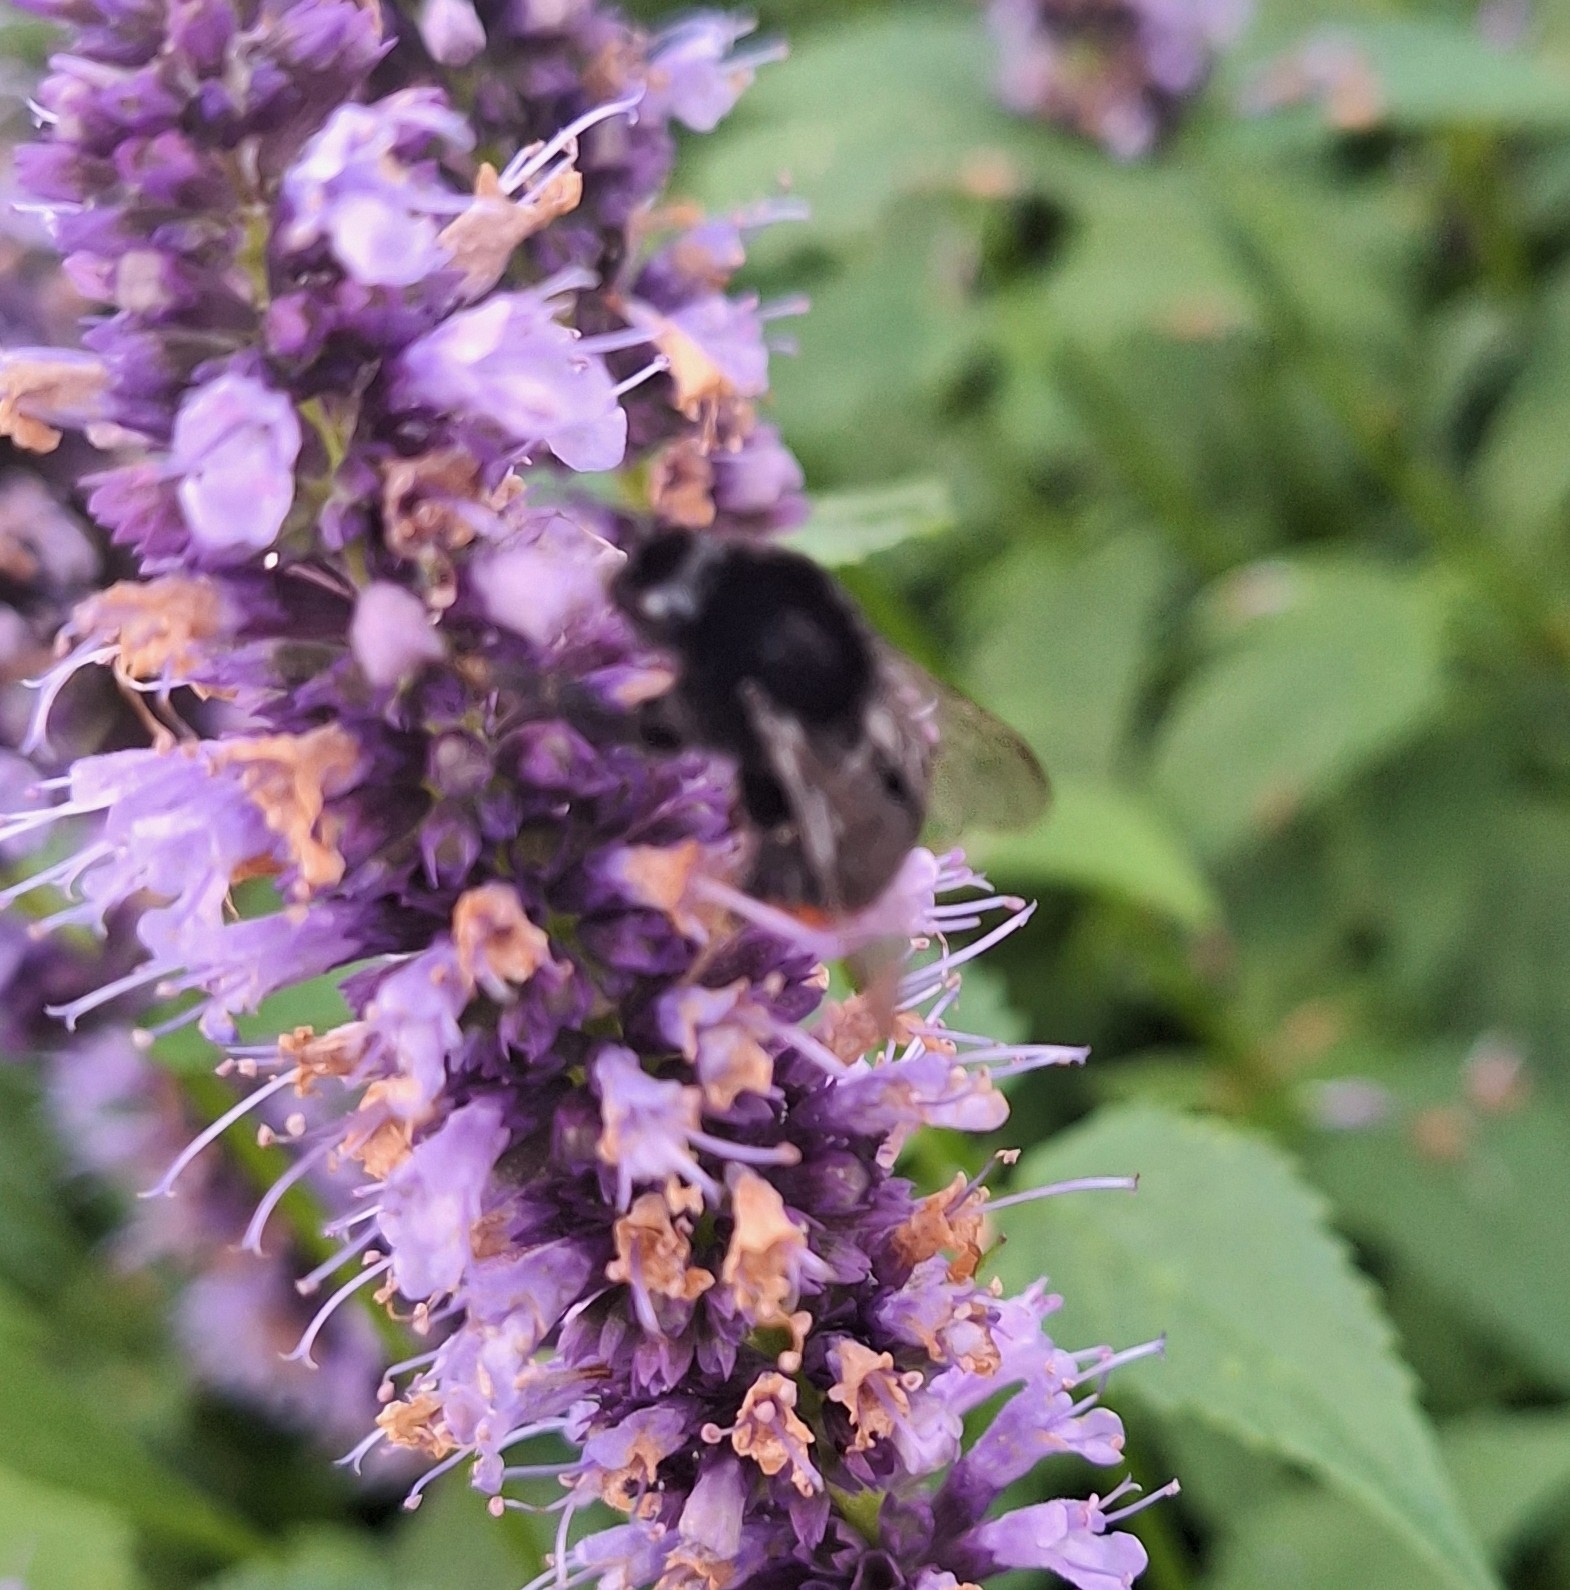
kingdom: Animalia
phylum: Arthropoda
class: Insecta
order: Hymenoptera
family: Apidae
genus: Bombus
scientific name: Bombus lapidarius
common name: Large red-tailed humble-bee
